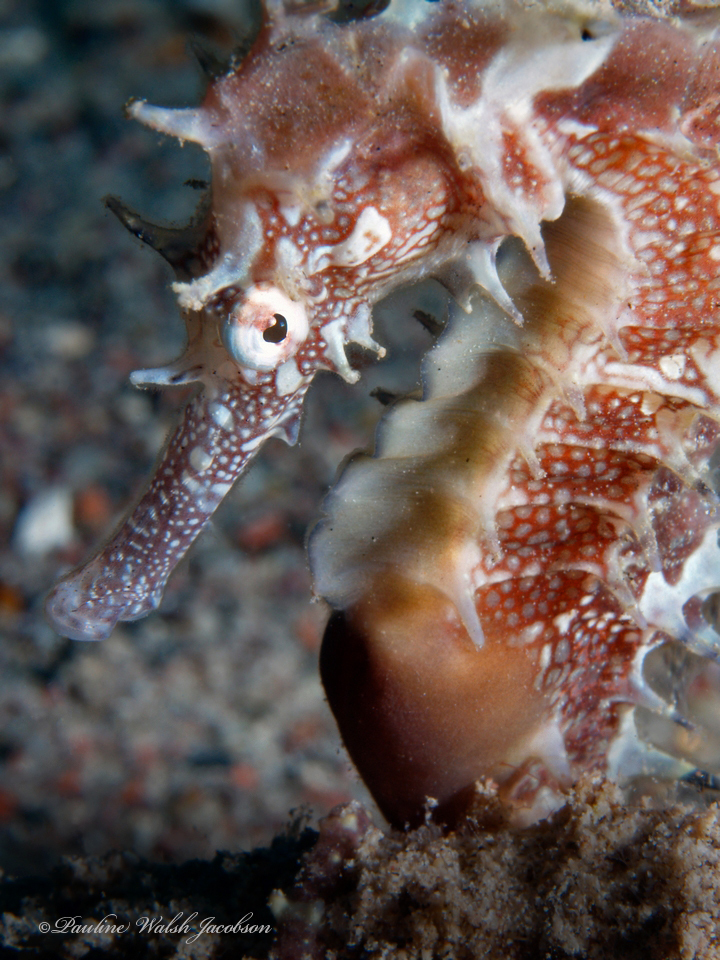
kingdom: Animalia
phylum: Chordata
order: Syngnathiformes
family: Syngnathidae
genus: Hippocampus
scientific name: Hippocampus jayakari
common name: Jayakar's seahorse
